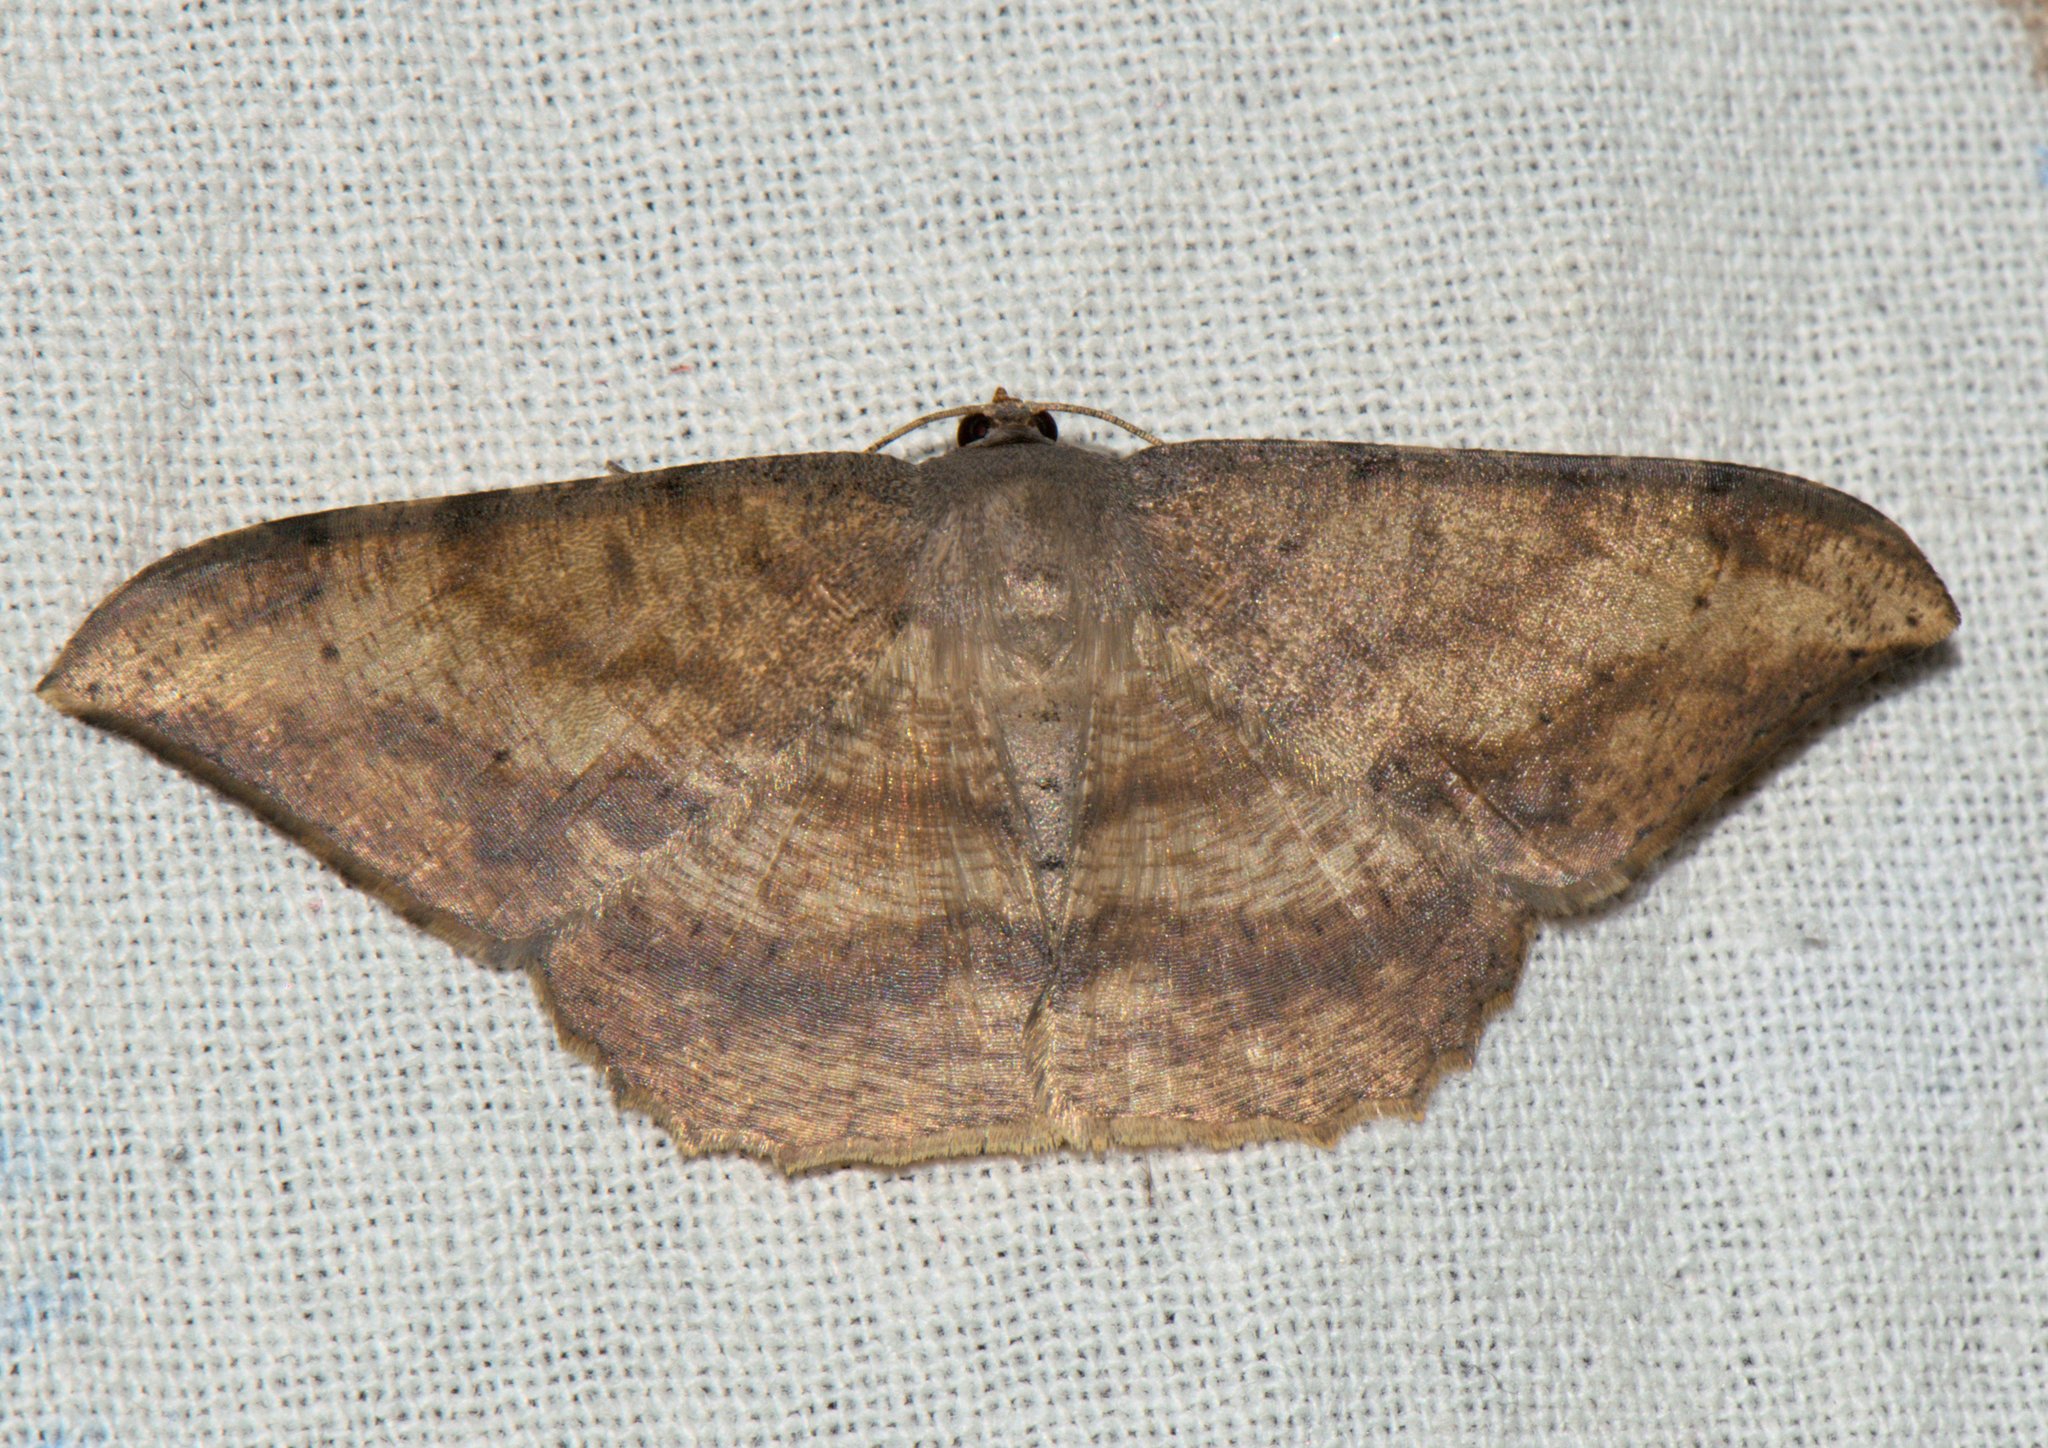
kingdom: Animalia
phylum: Arthropoda
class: Insecta
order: Lepidoptera
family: Geometridae
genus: Luxiaria
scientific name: Luxiaria amasa
